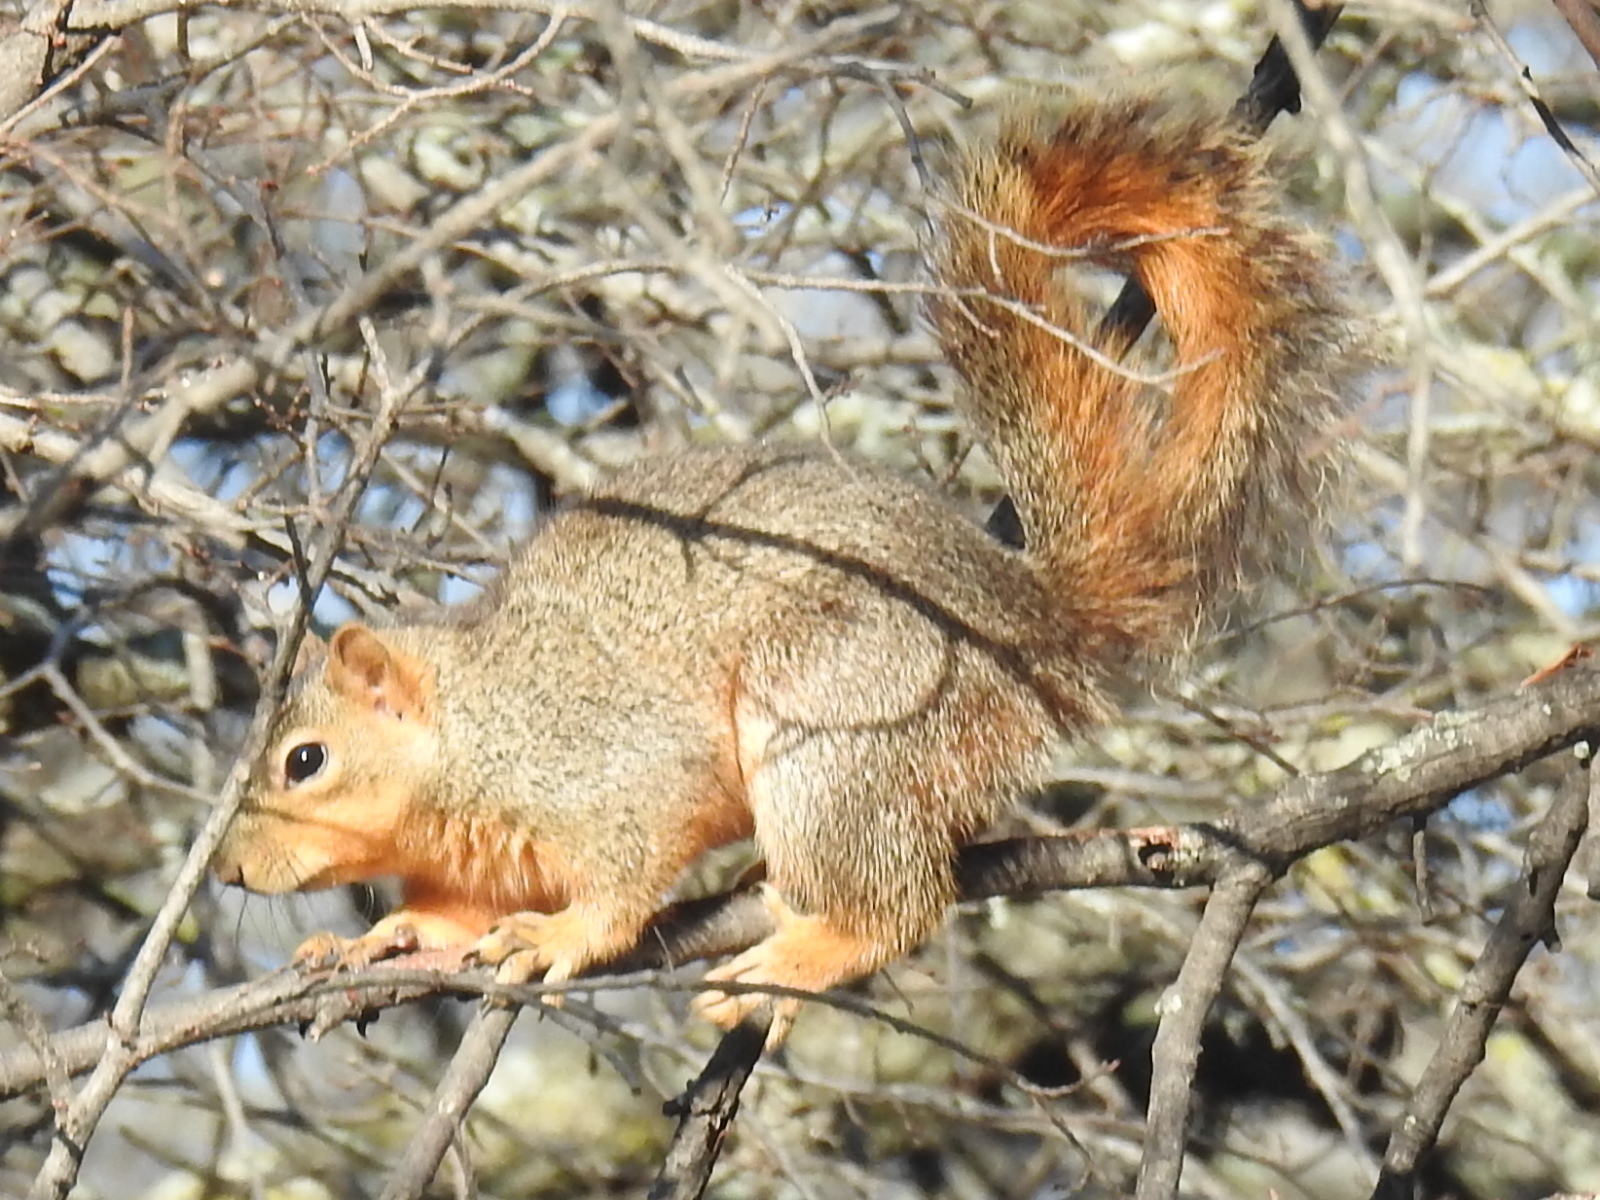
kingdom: Animalia
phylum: Chordata
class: Mammalia
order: Rodentia
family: Sciuridae
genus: Sciurus
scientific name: Sciurus niger
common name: Fox squirrel
